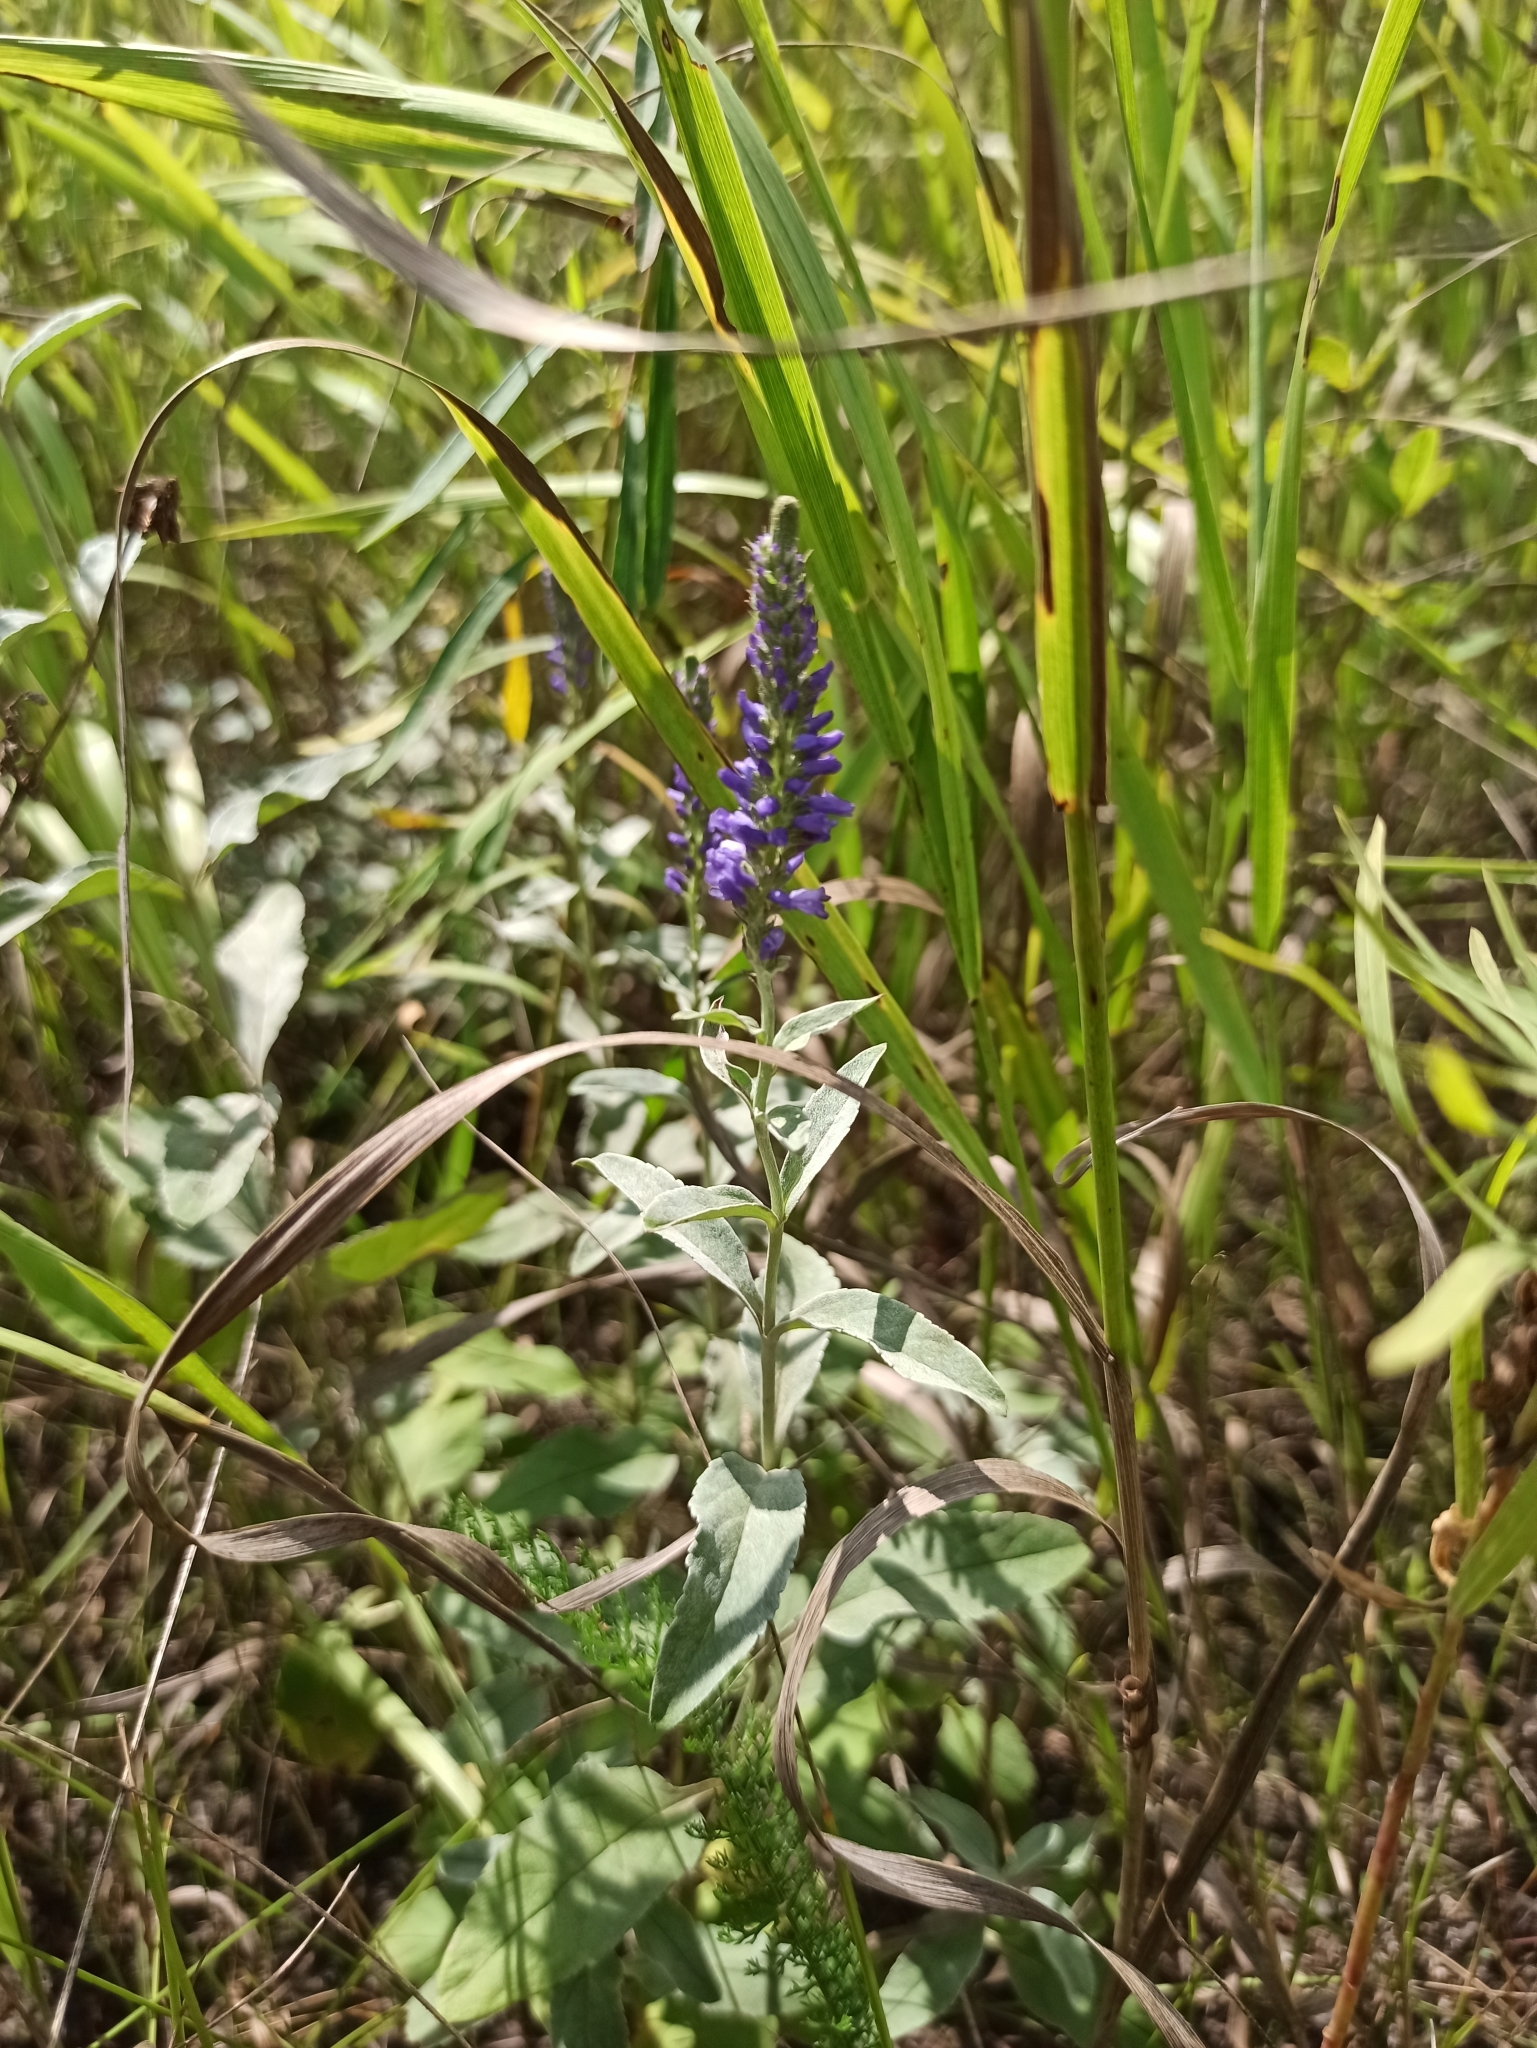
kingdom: Plantae
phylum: Tracheophyta
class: Magnoliopsida
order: Lamiales
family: Plantaginaceae
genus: Veronica
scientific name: Veronica spicata
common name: Spiked speedwell
